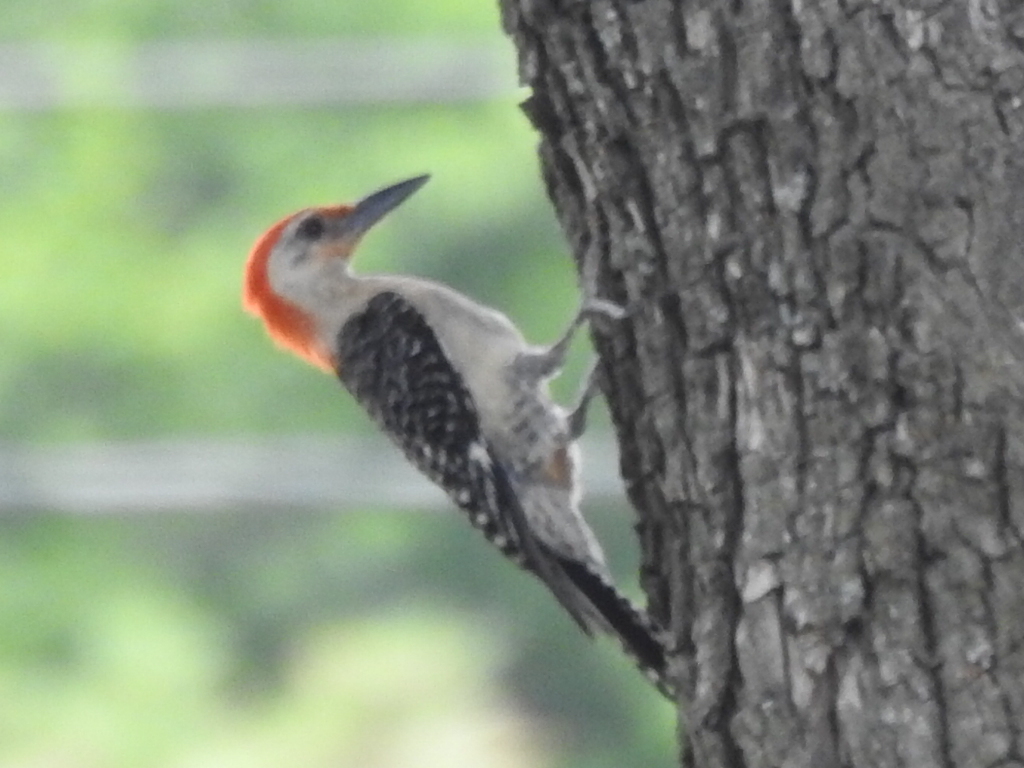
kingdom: Animalia
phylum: Chordata
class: Aves
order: Piciformes
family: Picidae
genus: Melanerpes
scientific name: Melanerpes carolinus
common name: Red-bellied woodpecker
